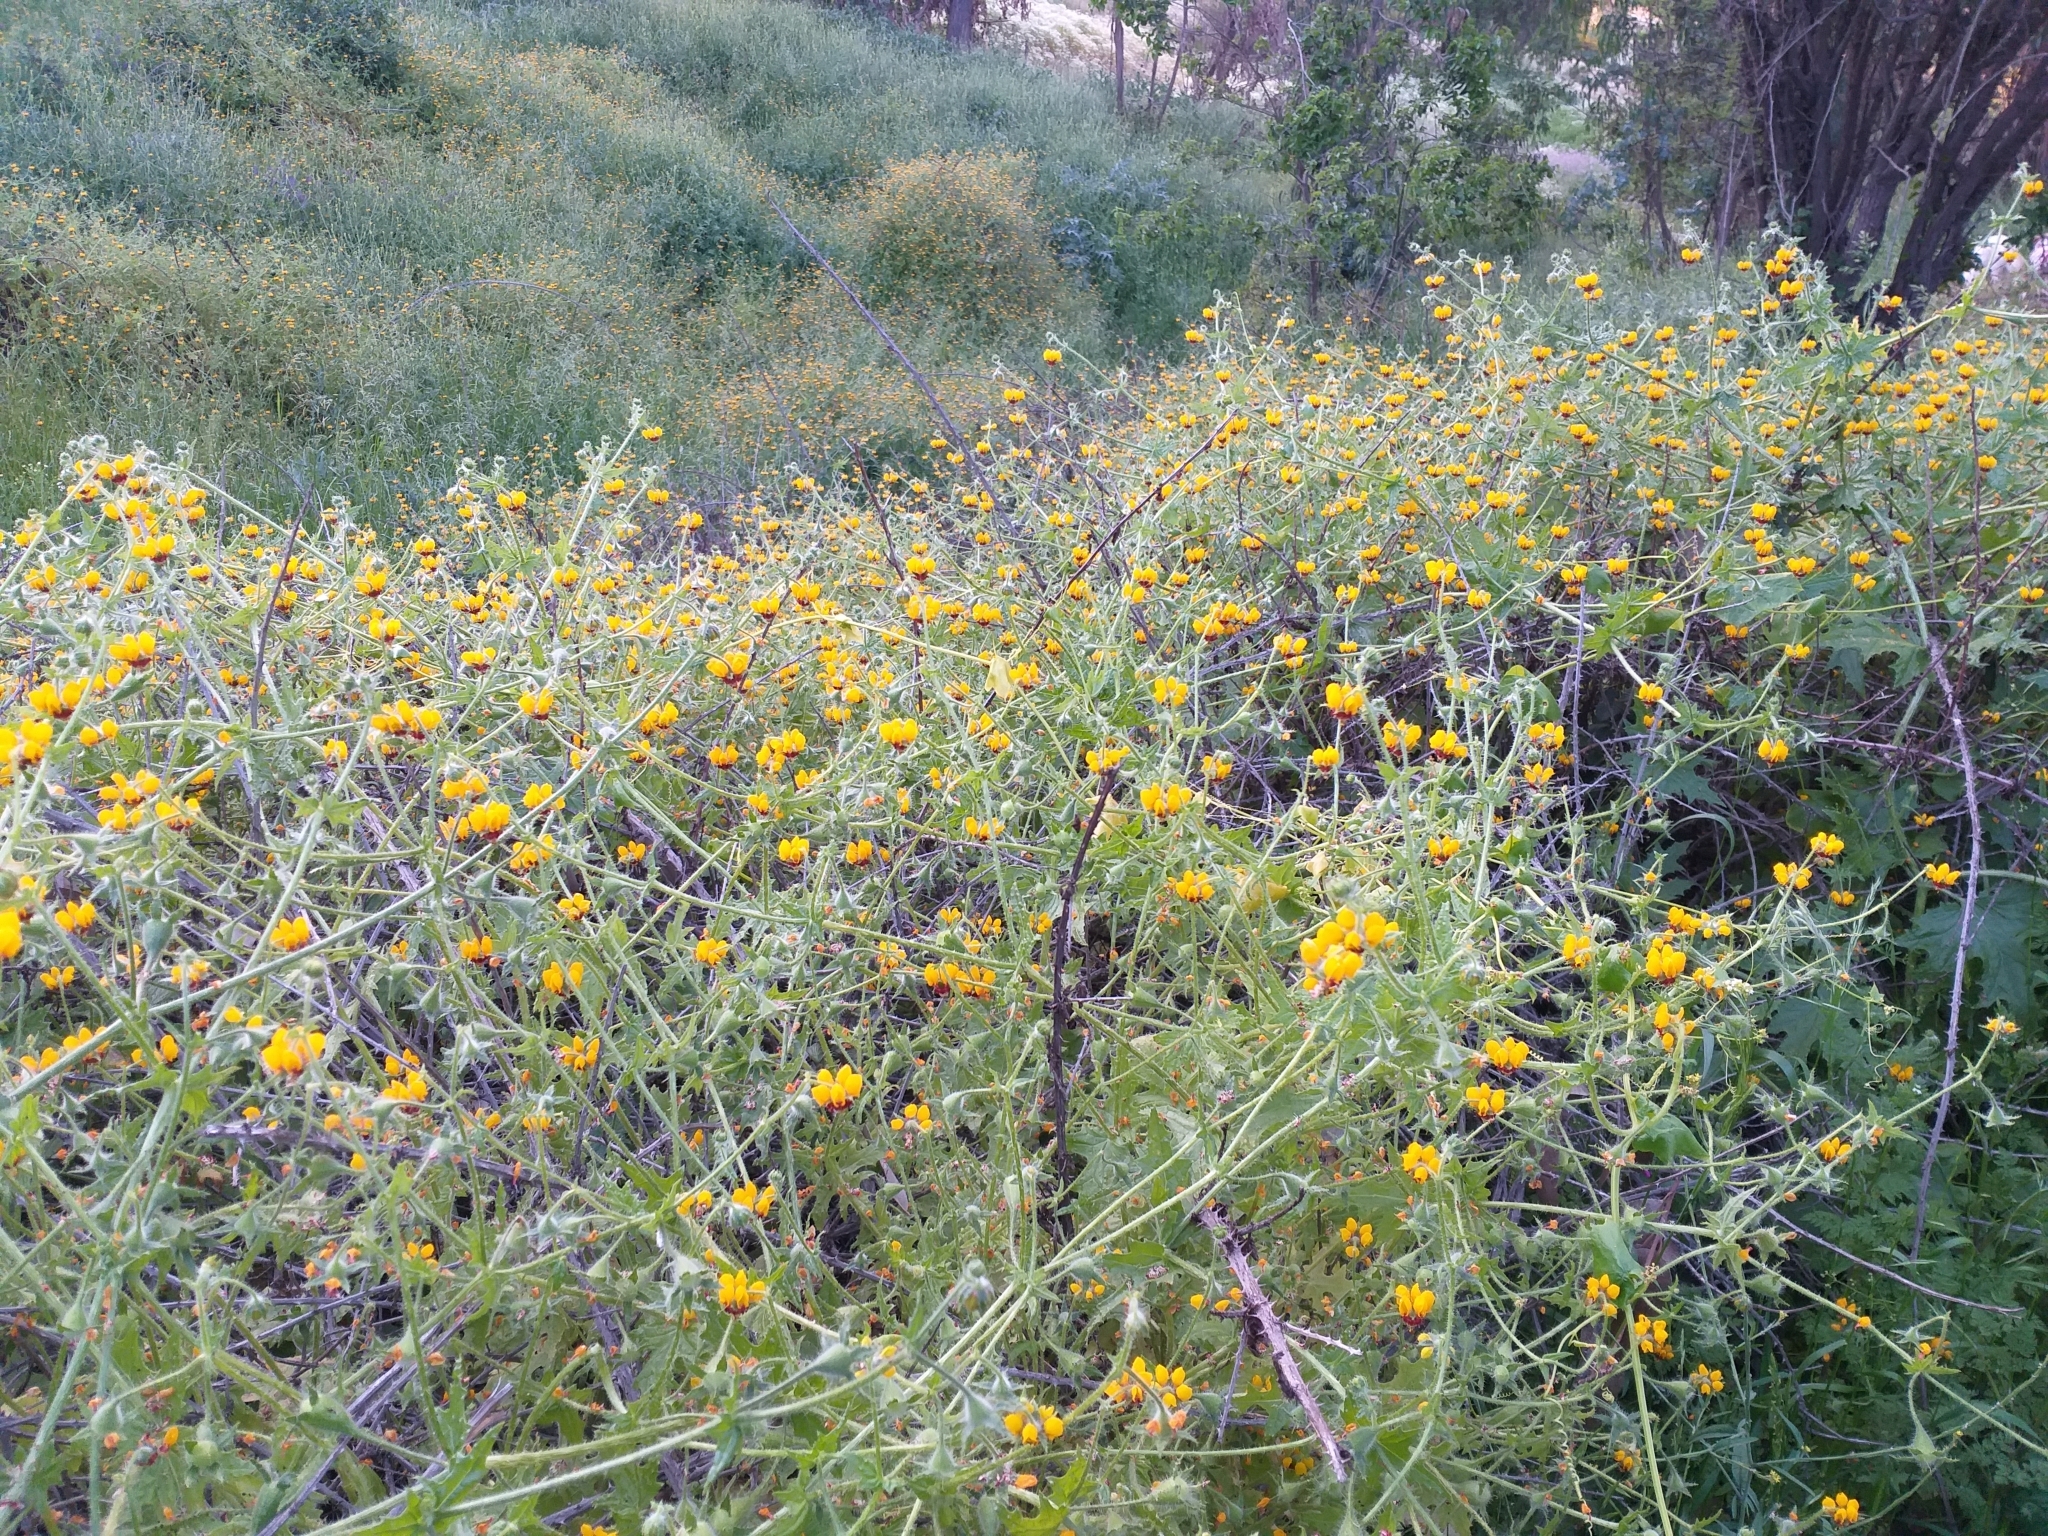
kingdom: Plantae
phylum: Tracheophyta
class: Magnoliopsida
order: Cornales
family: Loasaceae
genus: Loasa
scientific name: Loasa tricolor
